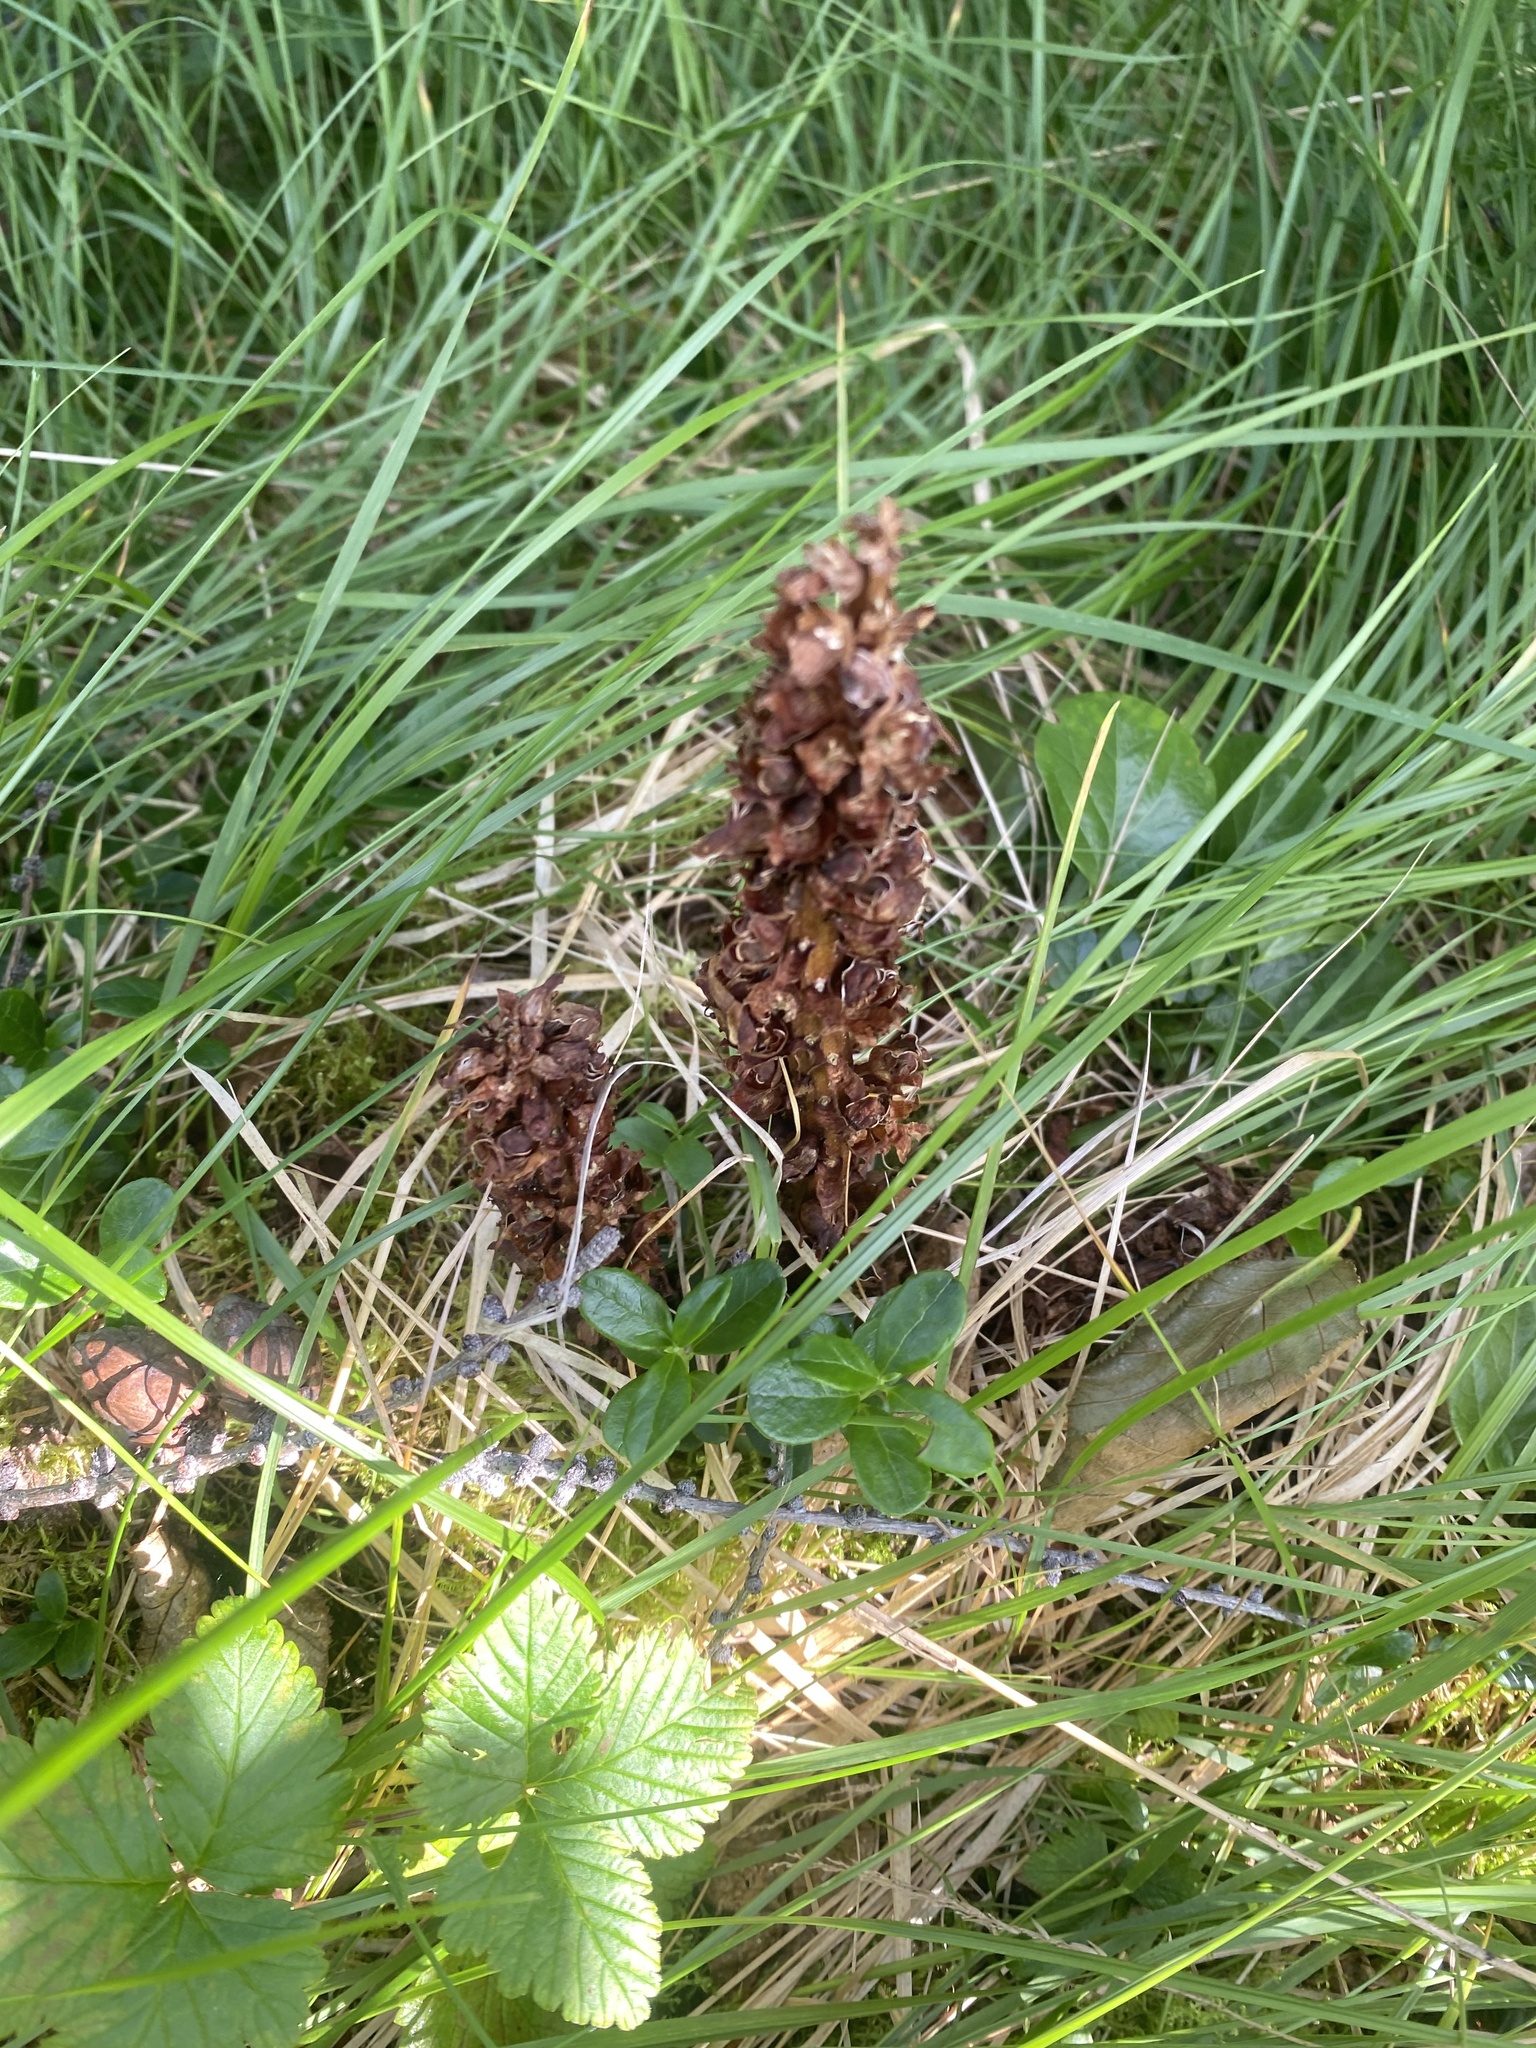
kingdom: Plantae
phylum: Tracheophyta
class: Magnoliopsida
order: Lamiales
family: Orobanchaceae
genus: Boschniakia
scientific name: Boschniakia rossica
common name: Poque
